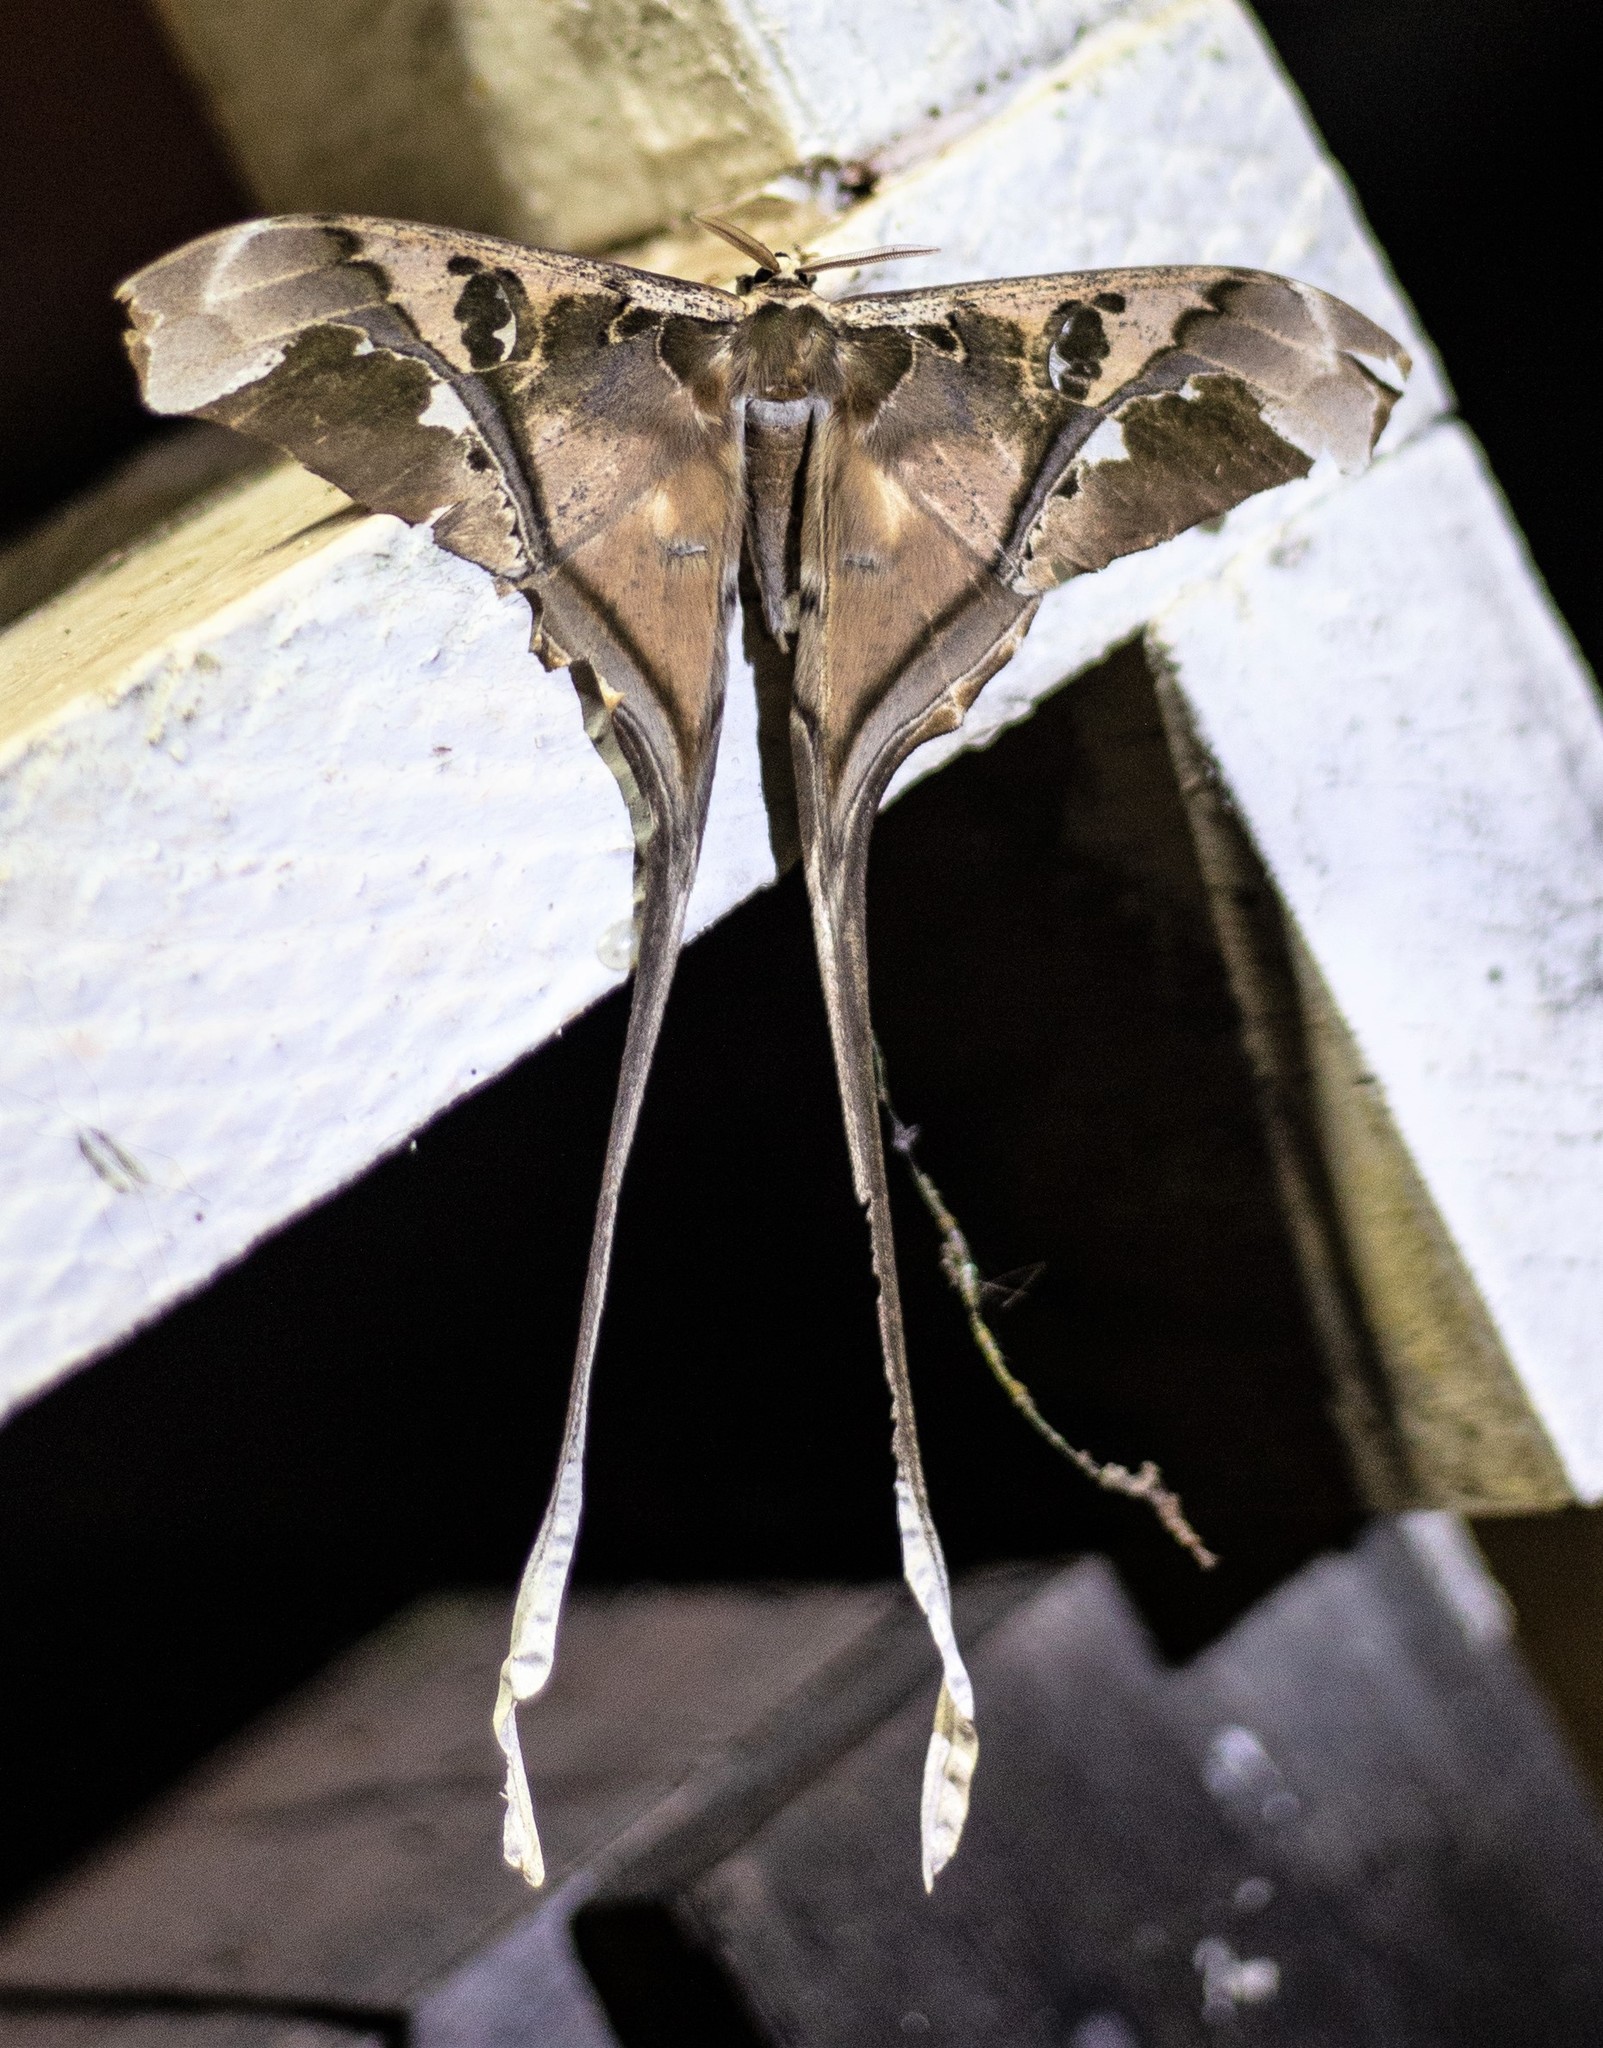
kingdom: Animalia
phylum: Arthropoda
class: Insecta
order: Lepidoptera
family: Saturniidae
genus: Copiopteryx
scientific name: Copiopteryx semiramis
